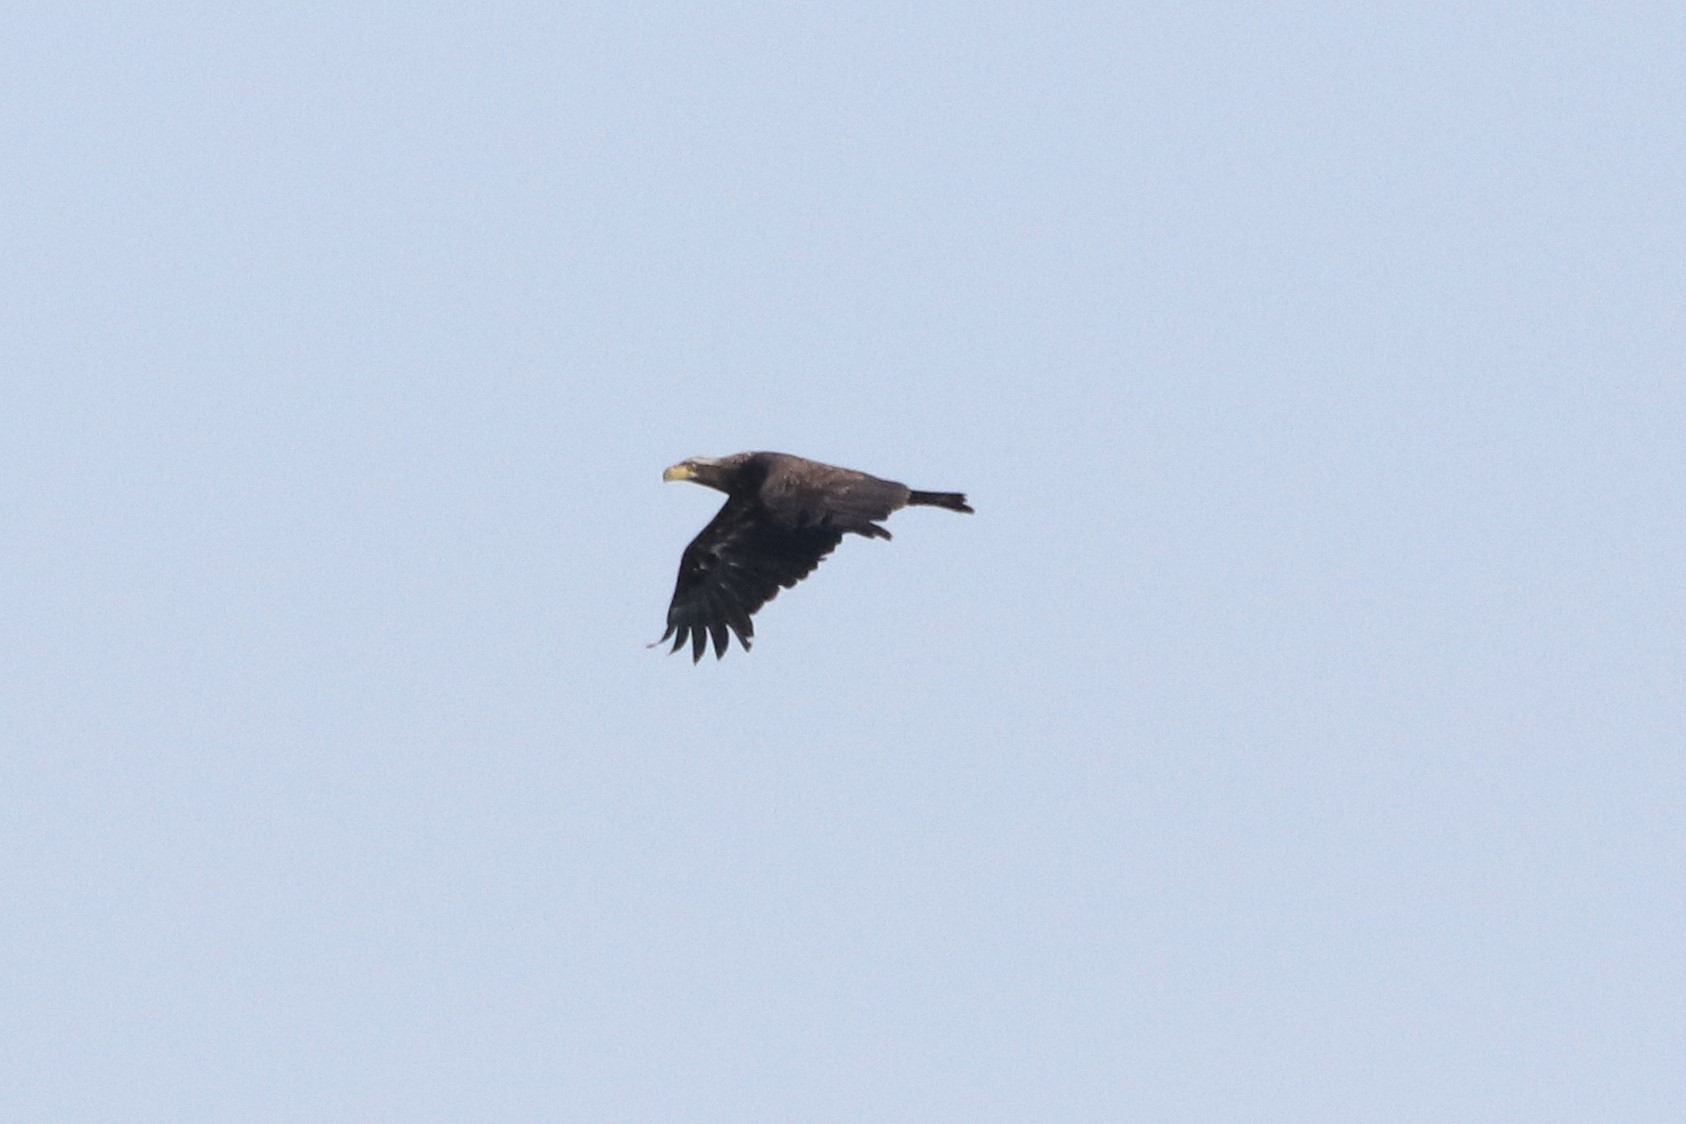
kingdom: Animalia
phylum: Chordata
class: Aves
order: Accipitriformes
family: Accipitridae
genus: Haliaeetus
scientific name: Haliaeetus leucocephalus
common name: Bald eagle
